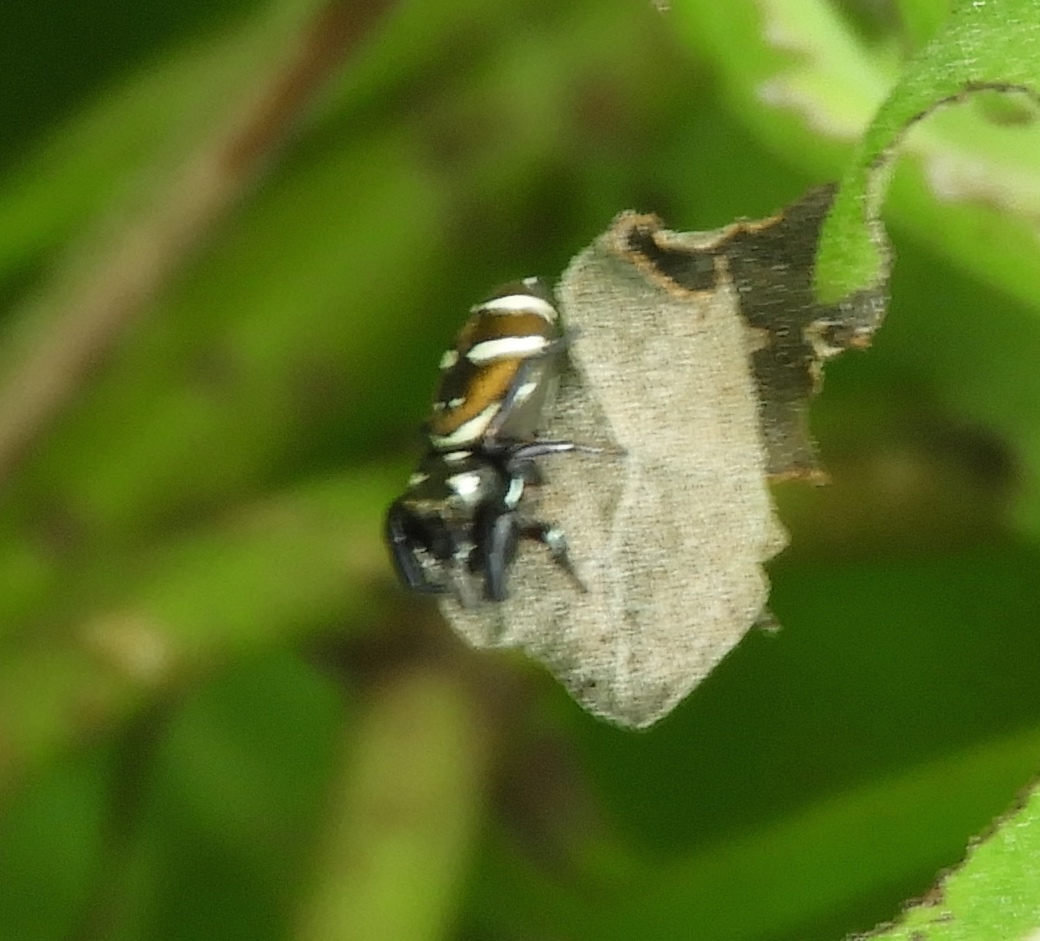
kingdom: Animalia
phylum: Arthropoda
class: Arachnida
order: Araneae
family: Salticidae
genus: Salticus
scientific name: Salticus
